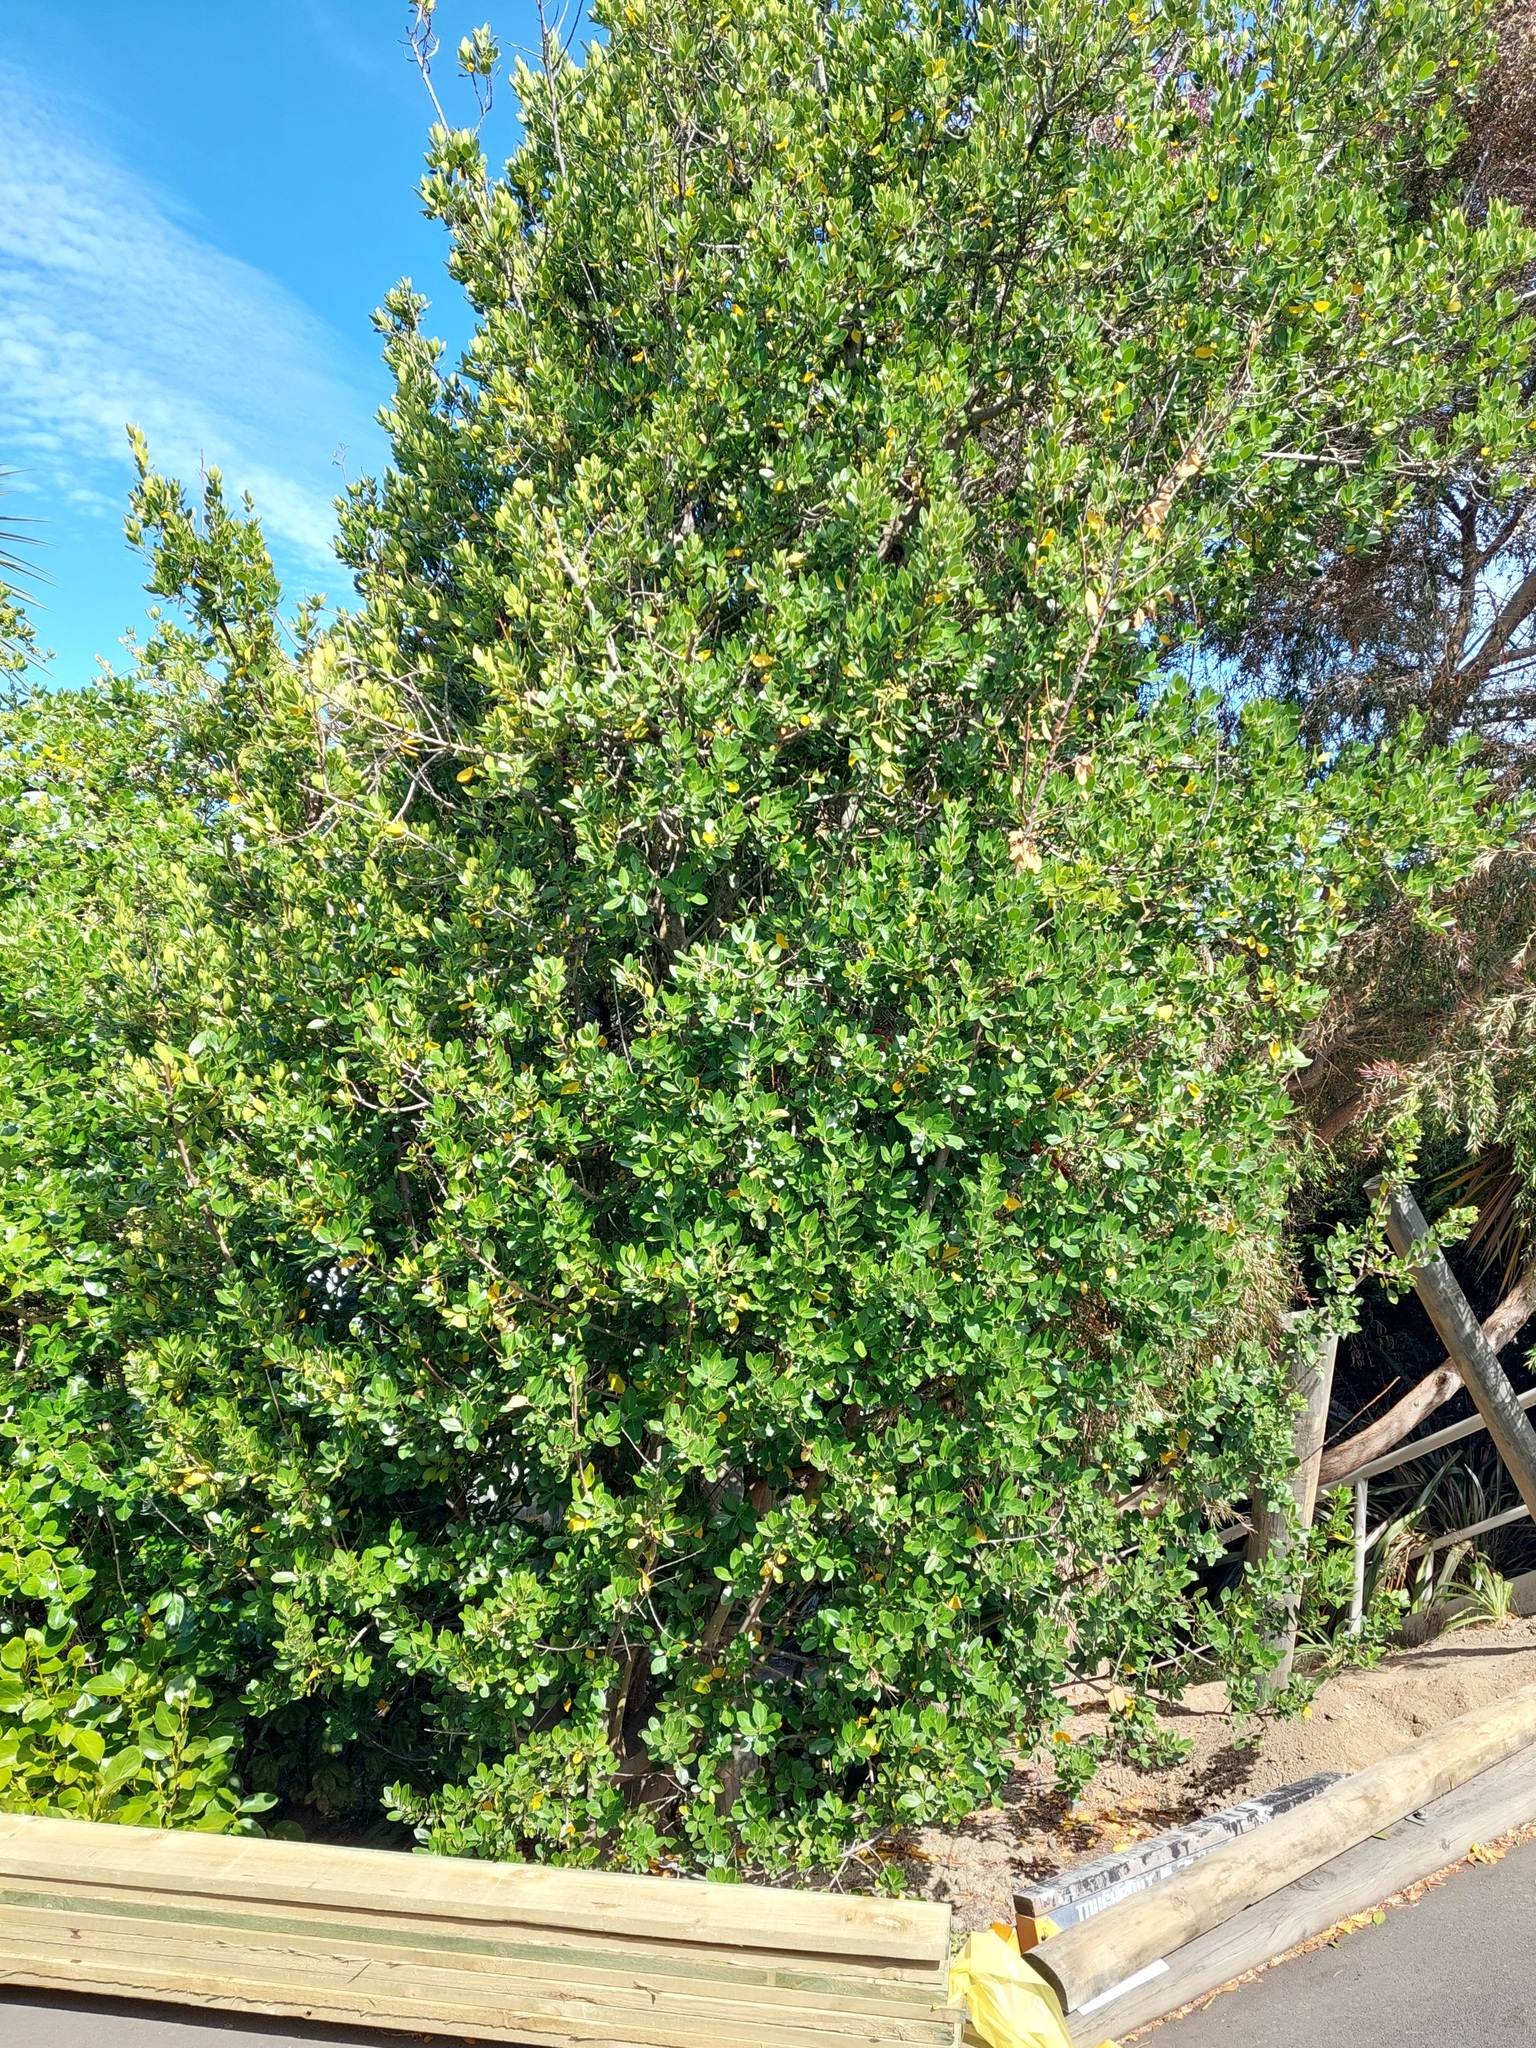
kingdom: Plantae
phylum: Tracheophyta
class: Magnoliopsida
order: Rosales
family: Rhamnaceae
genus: Rhamnus
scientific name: Rhamnus alaternus
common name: Mediterranean buckthorn
